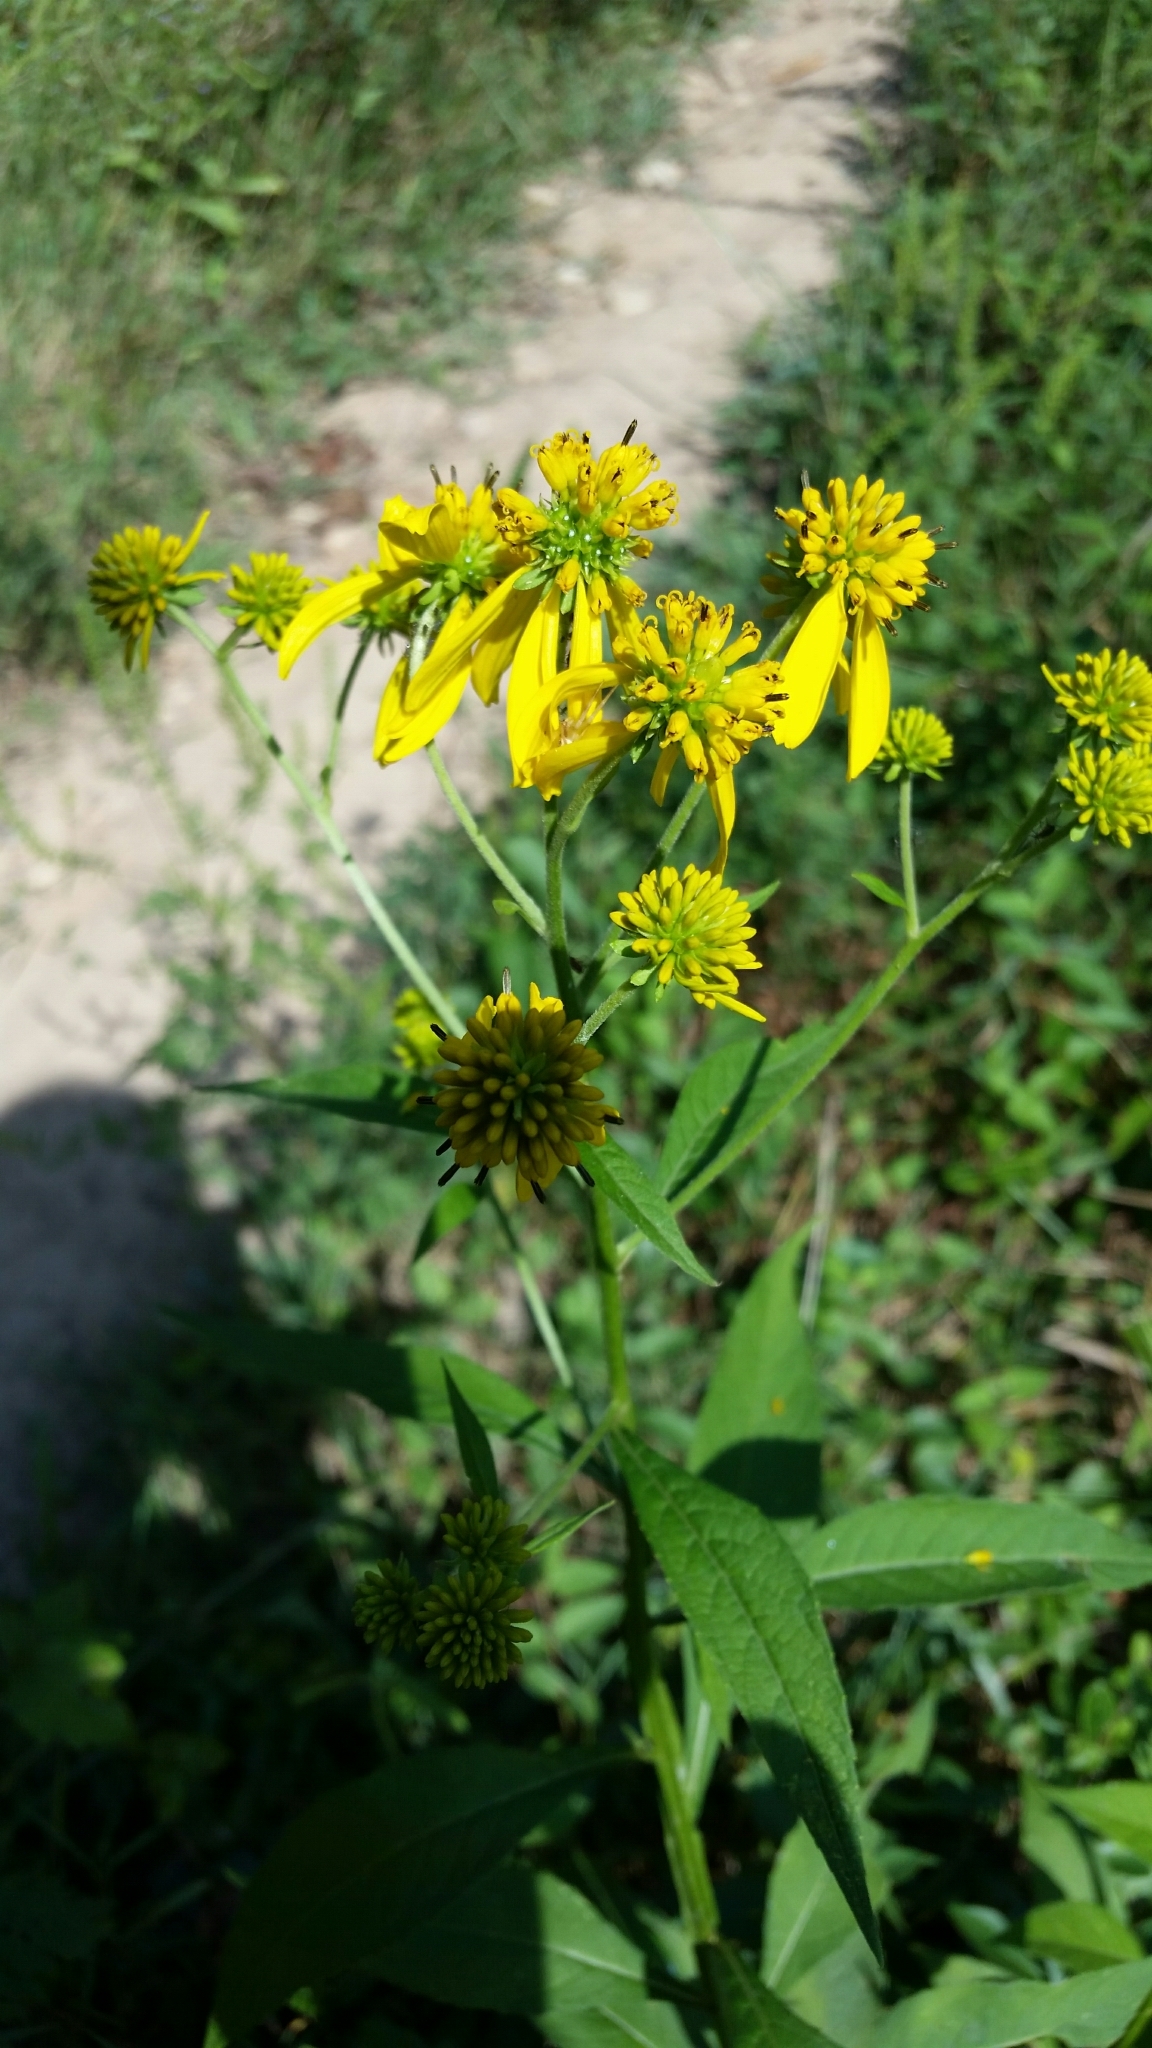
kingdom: Plantae
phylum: Tracheophyta
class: Magnoliopsida
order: Asterales
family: Asteraceae
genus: Verbesina
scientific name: Verbesina alternifolia
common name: Wingstem
